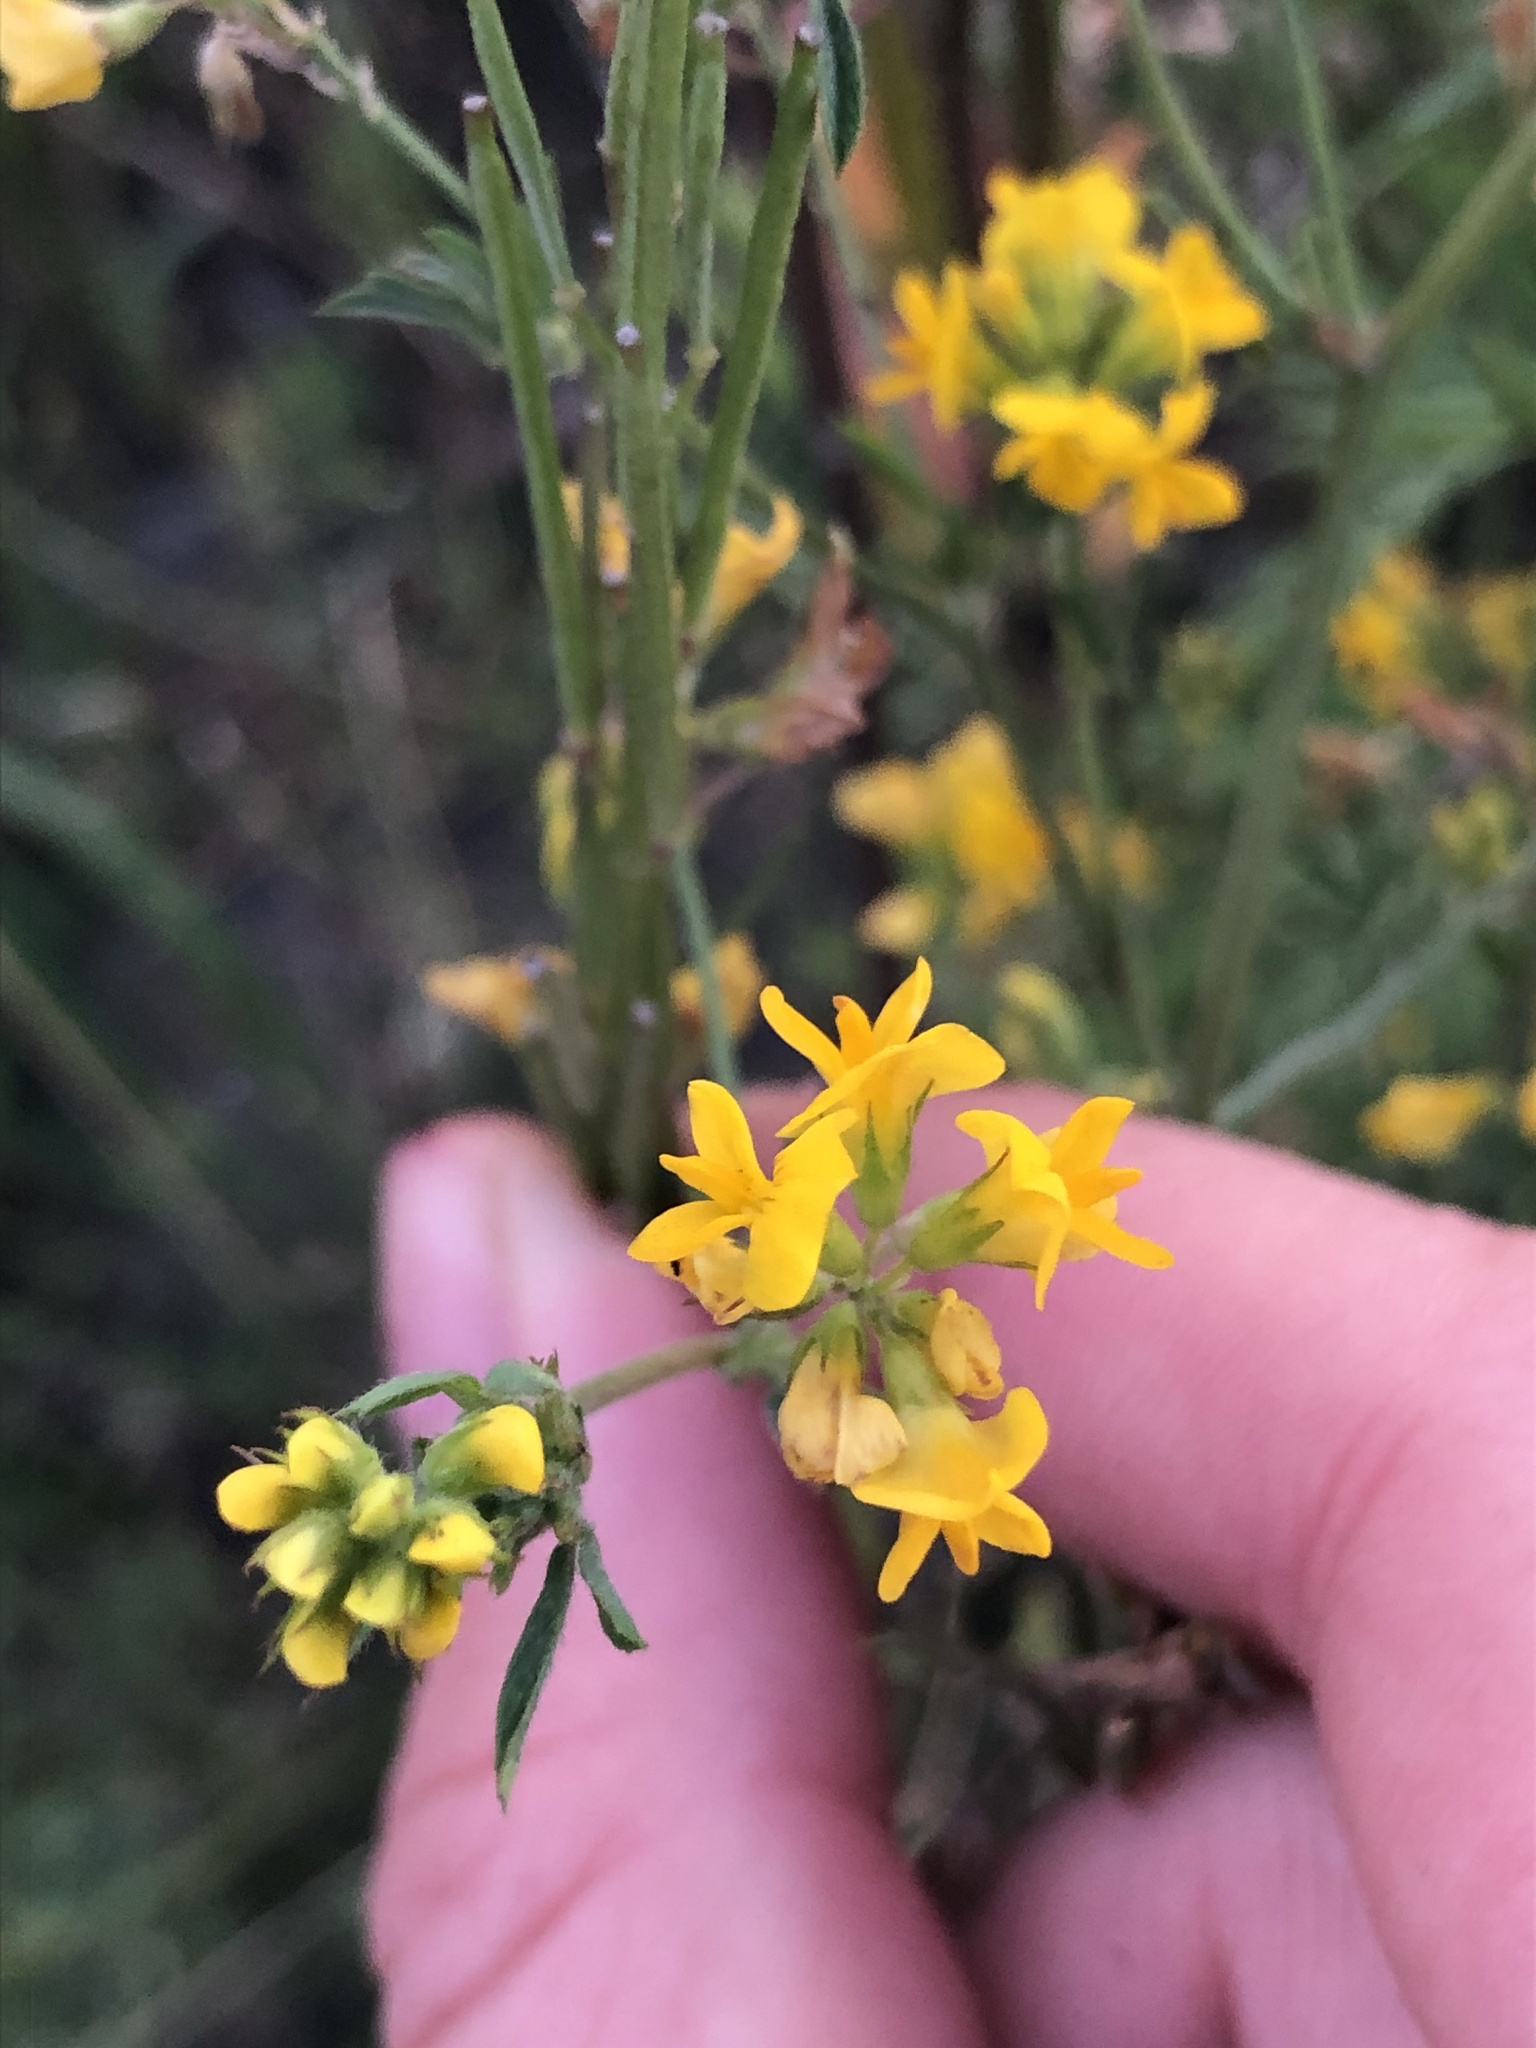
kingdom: Plantae
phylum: Tracheophyta
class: Magnoliopsida
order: Fabales
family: Fabaceae
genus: Melilotus
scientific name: Melilotus officinalis
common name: Sweetclover
